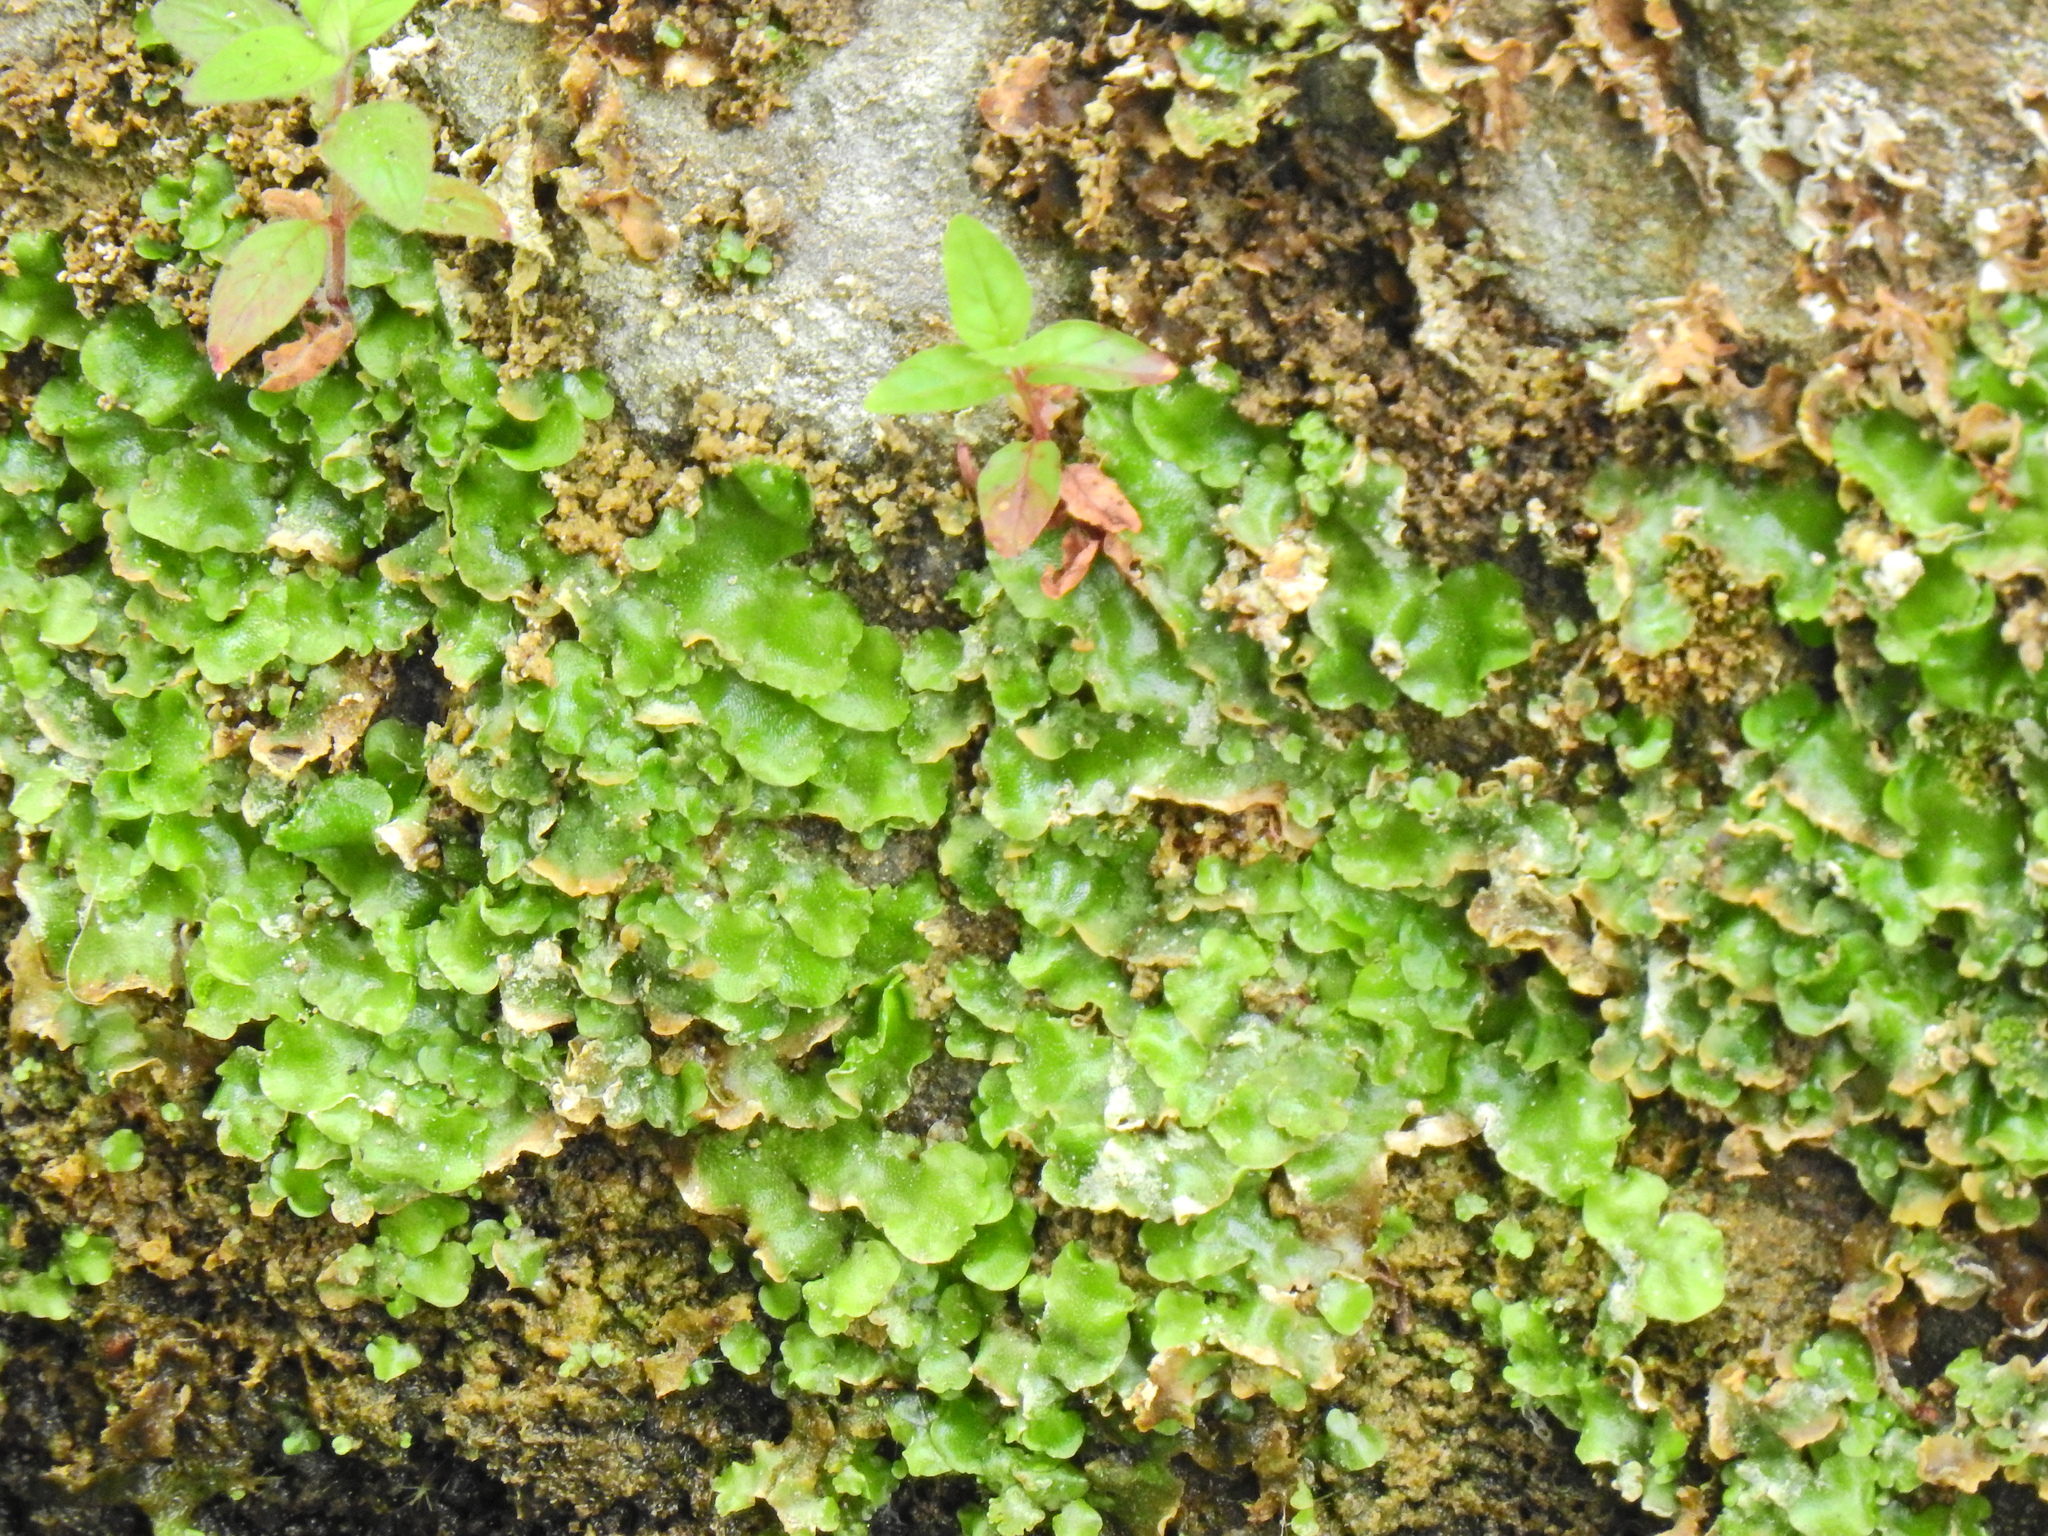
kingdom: Plantae
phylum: Marchantiophyta
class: Marchantiopsida
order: Lunulariales
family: Lunulariaceae
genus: Lunularia
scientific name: Lunularia cruciata
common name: Crescent-cup liverwort
